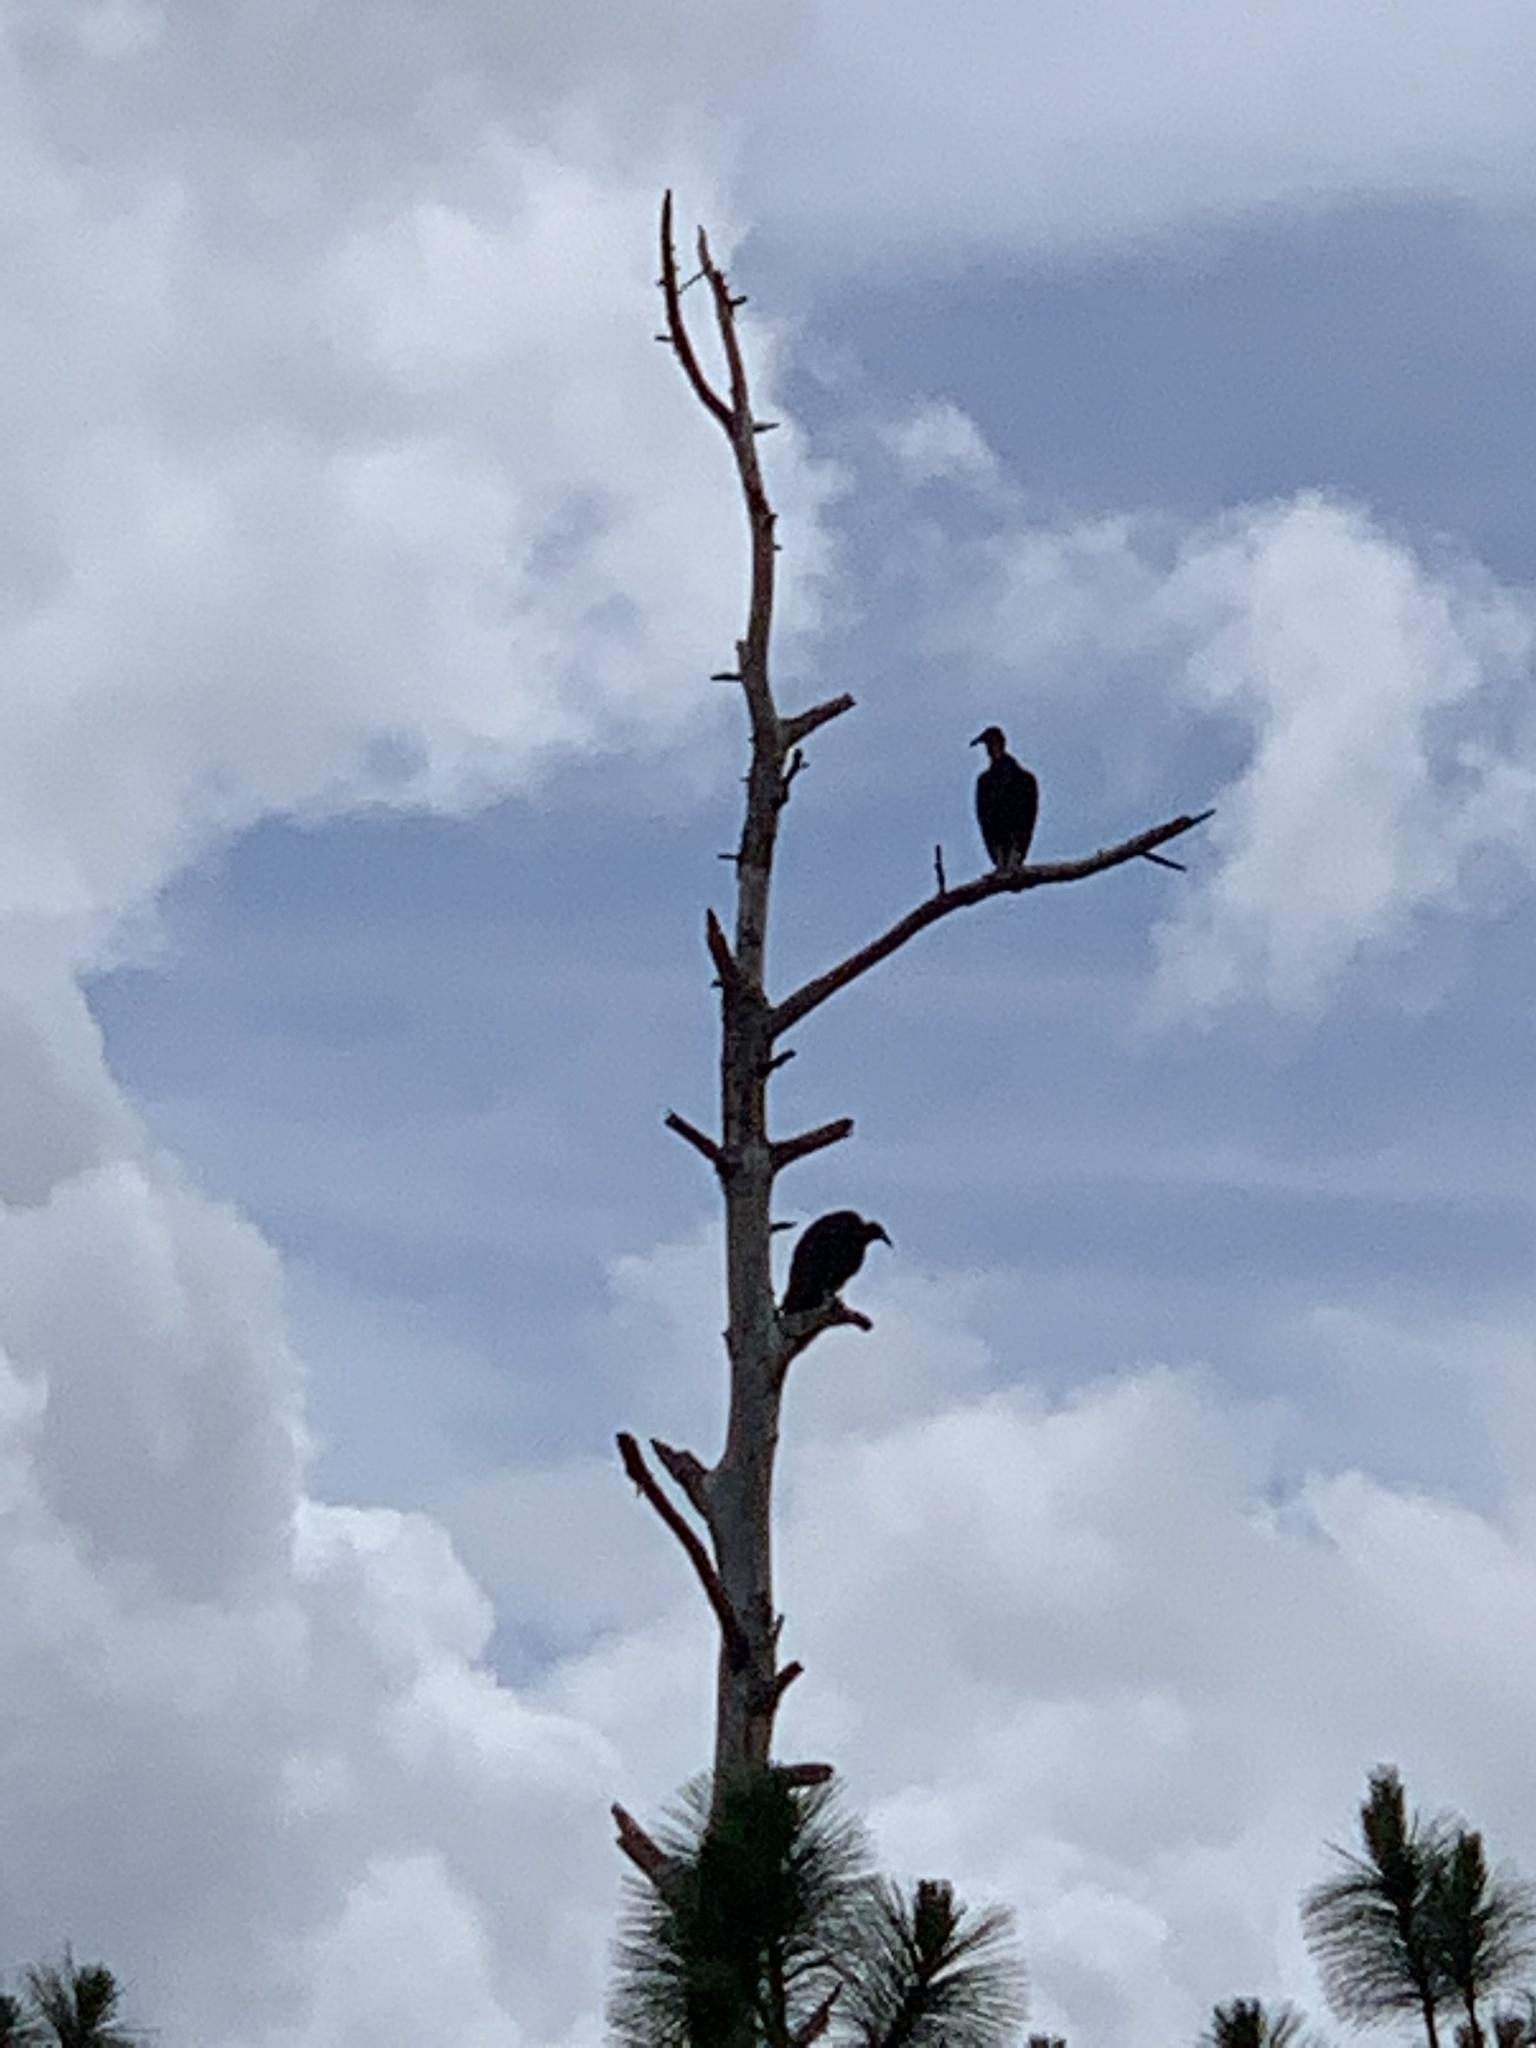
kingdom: Animalia
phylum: Chordata
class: Aves
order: Accipitriformes
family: Cathartidae
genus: Coragyps
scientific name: Coragyps atratus
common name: Black vulture
